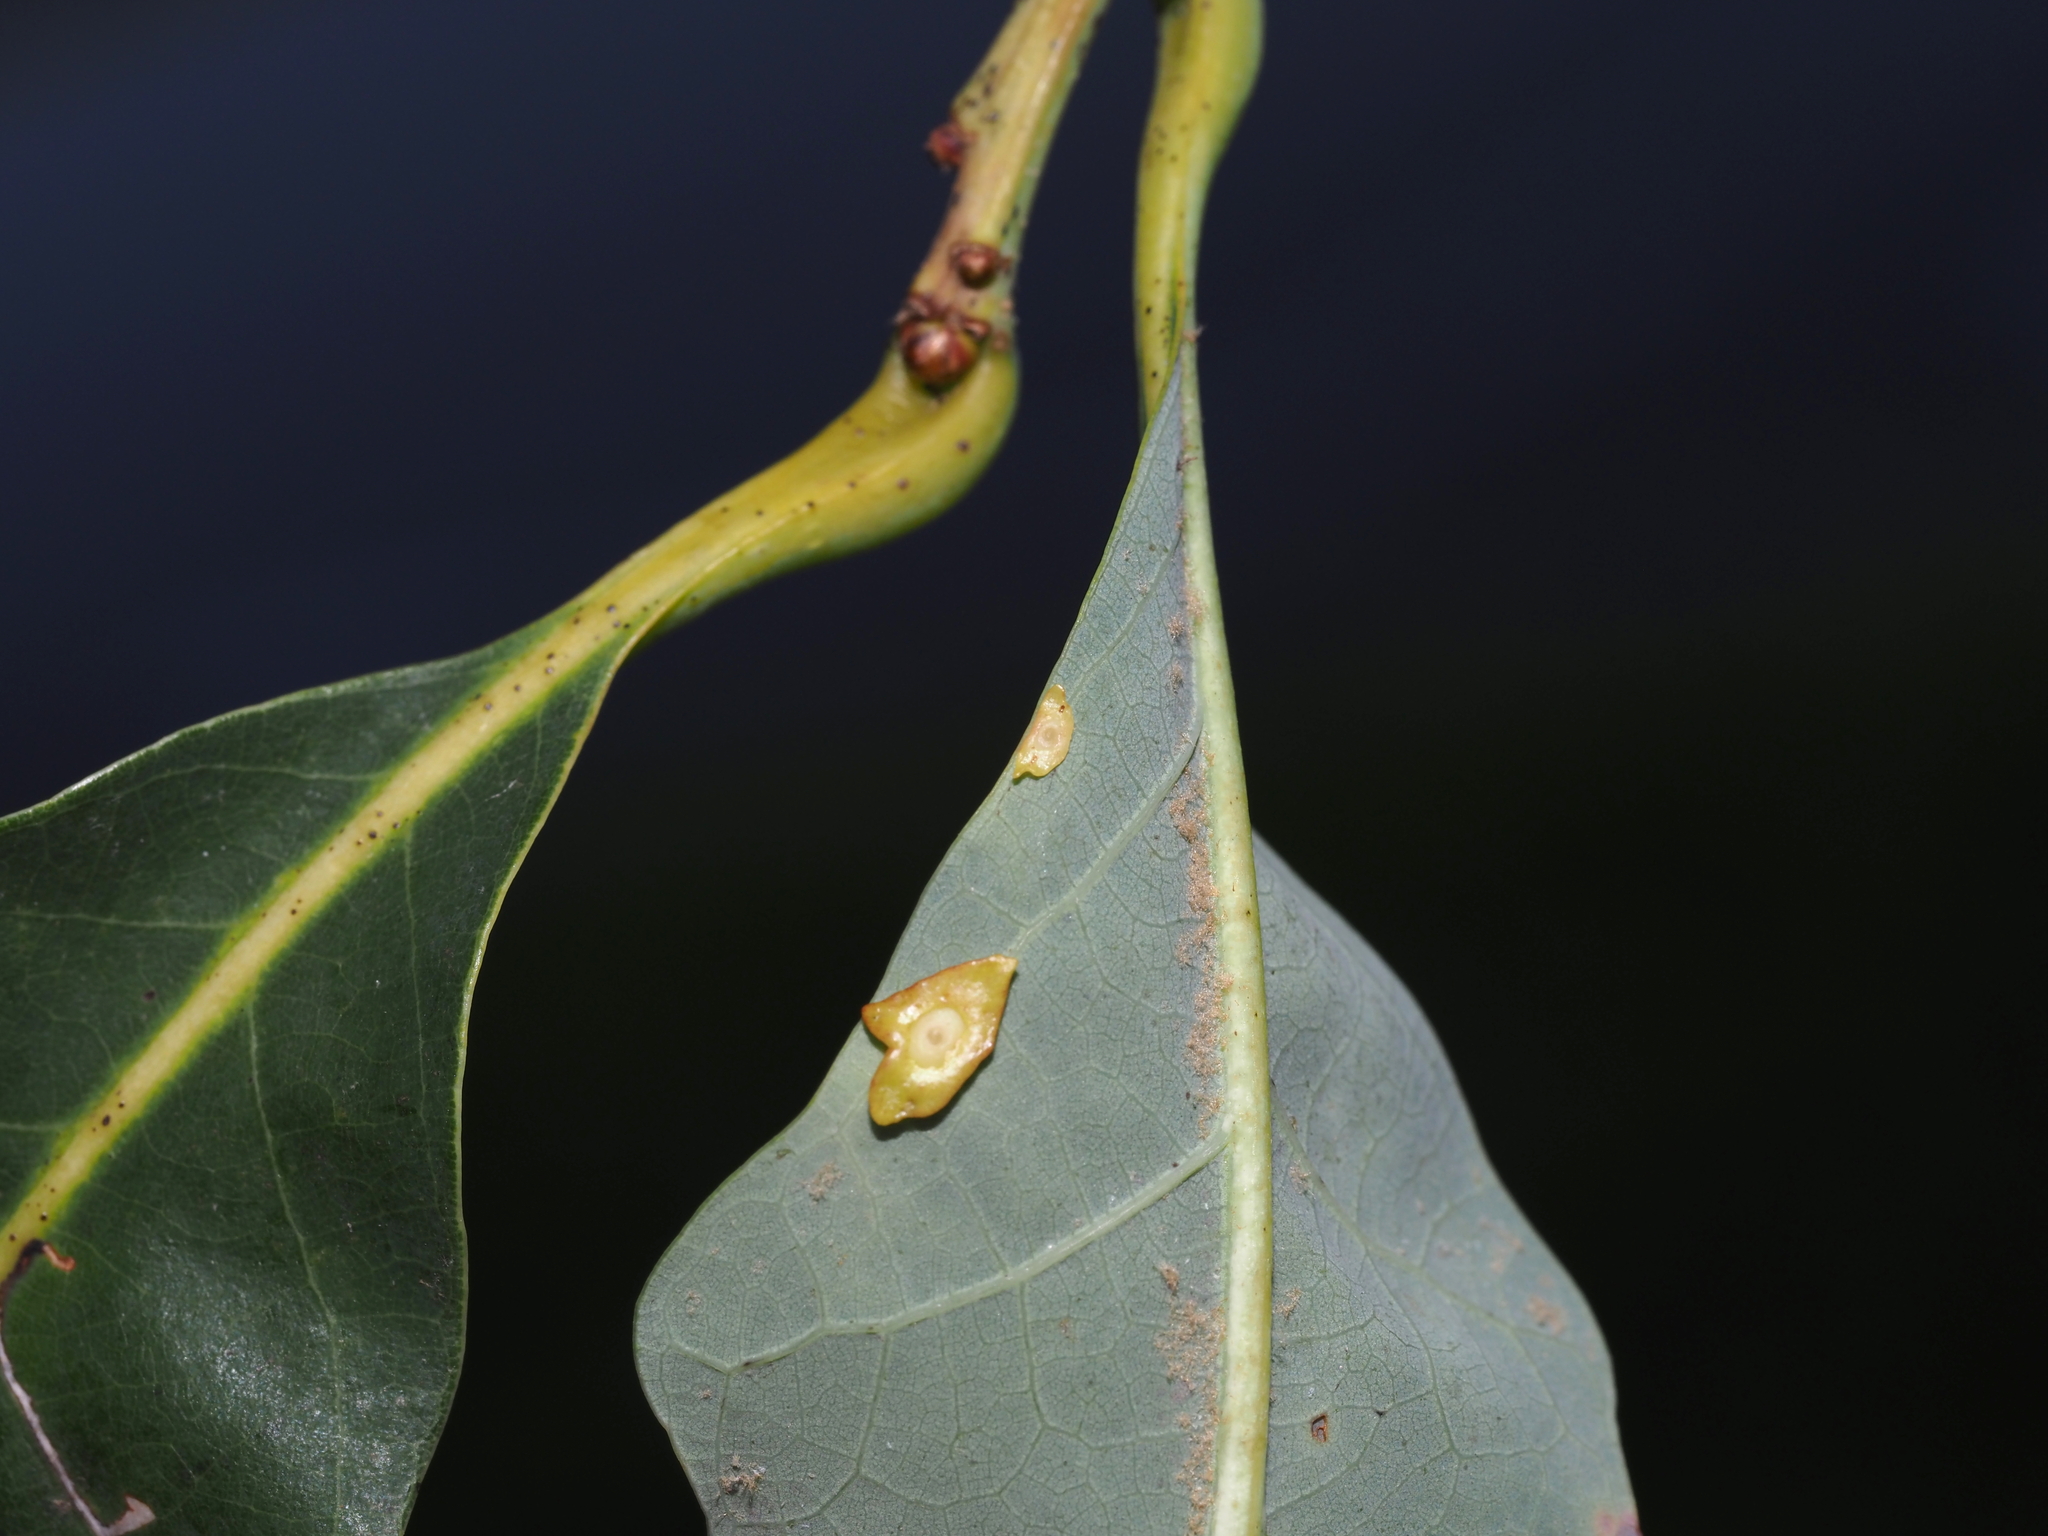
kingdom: Animalia
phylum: Arthropoda
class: Insecta
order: Hymenoptera
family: Cynipidae
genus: Phylloteras
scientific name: Phylloteras
